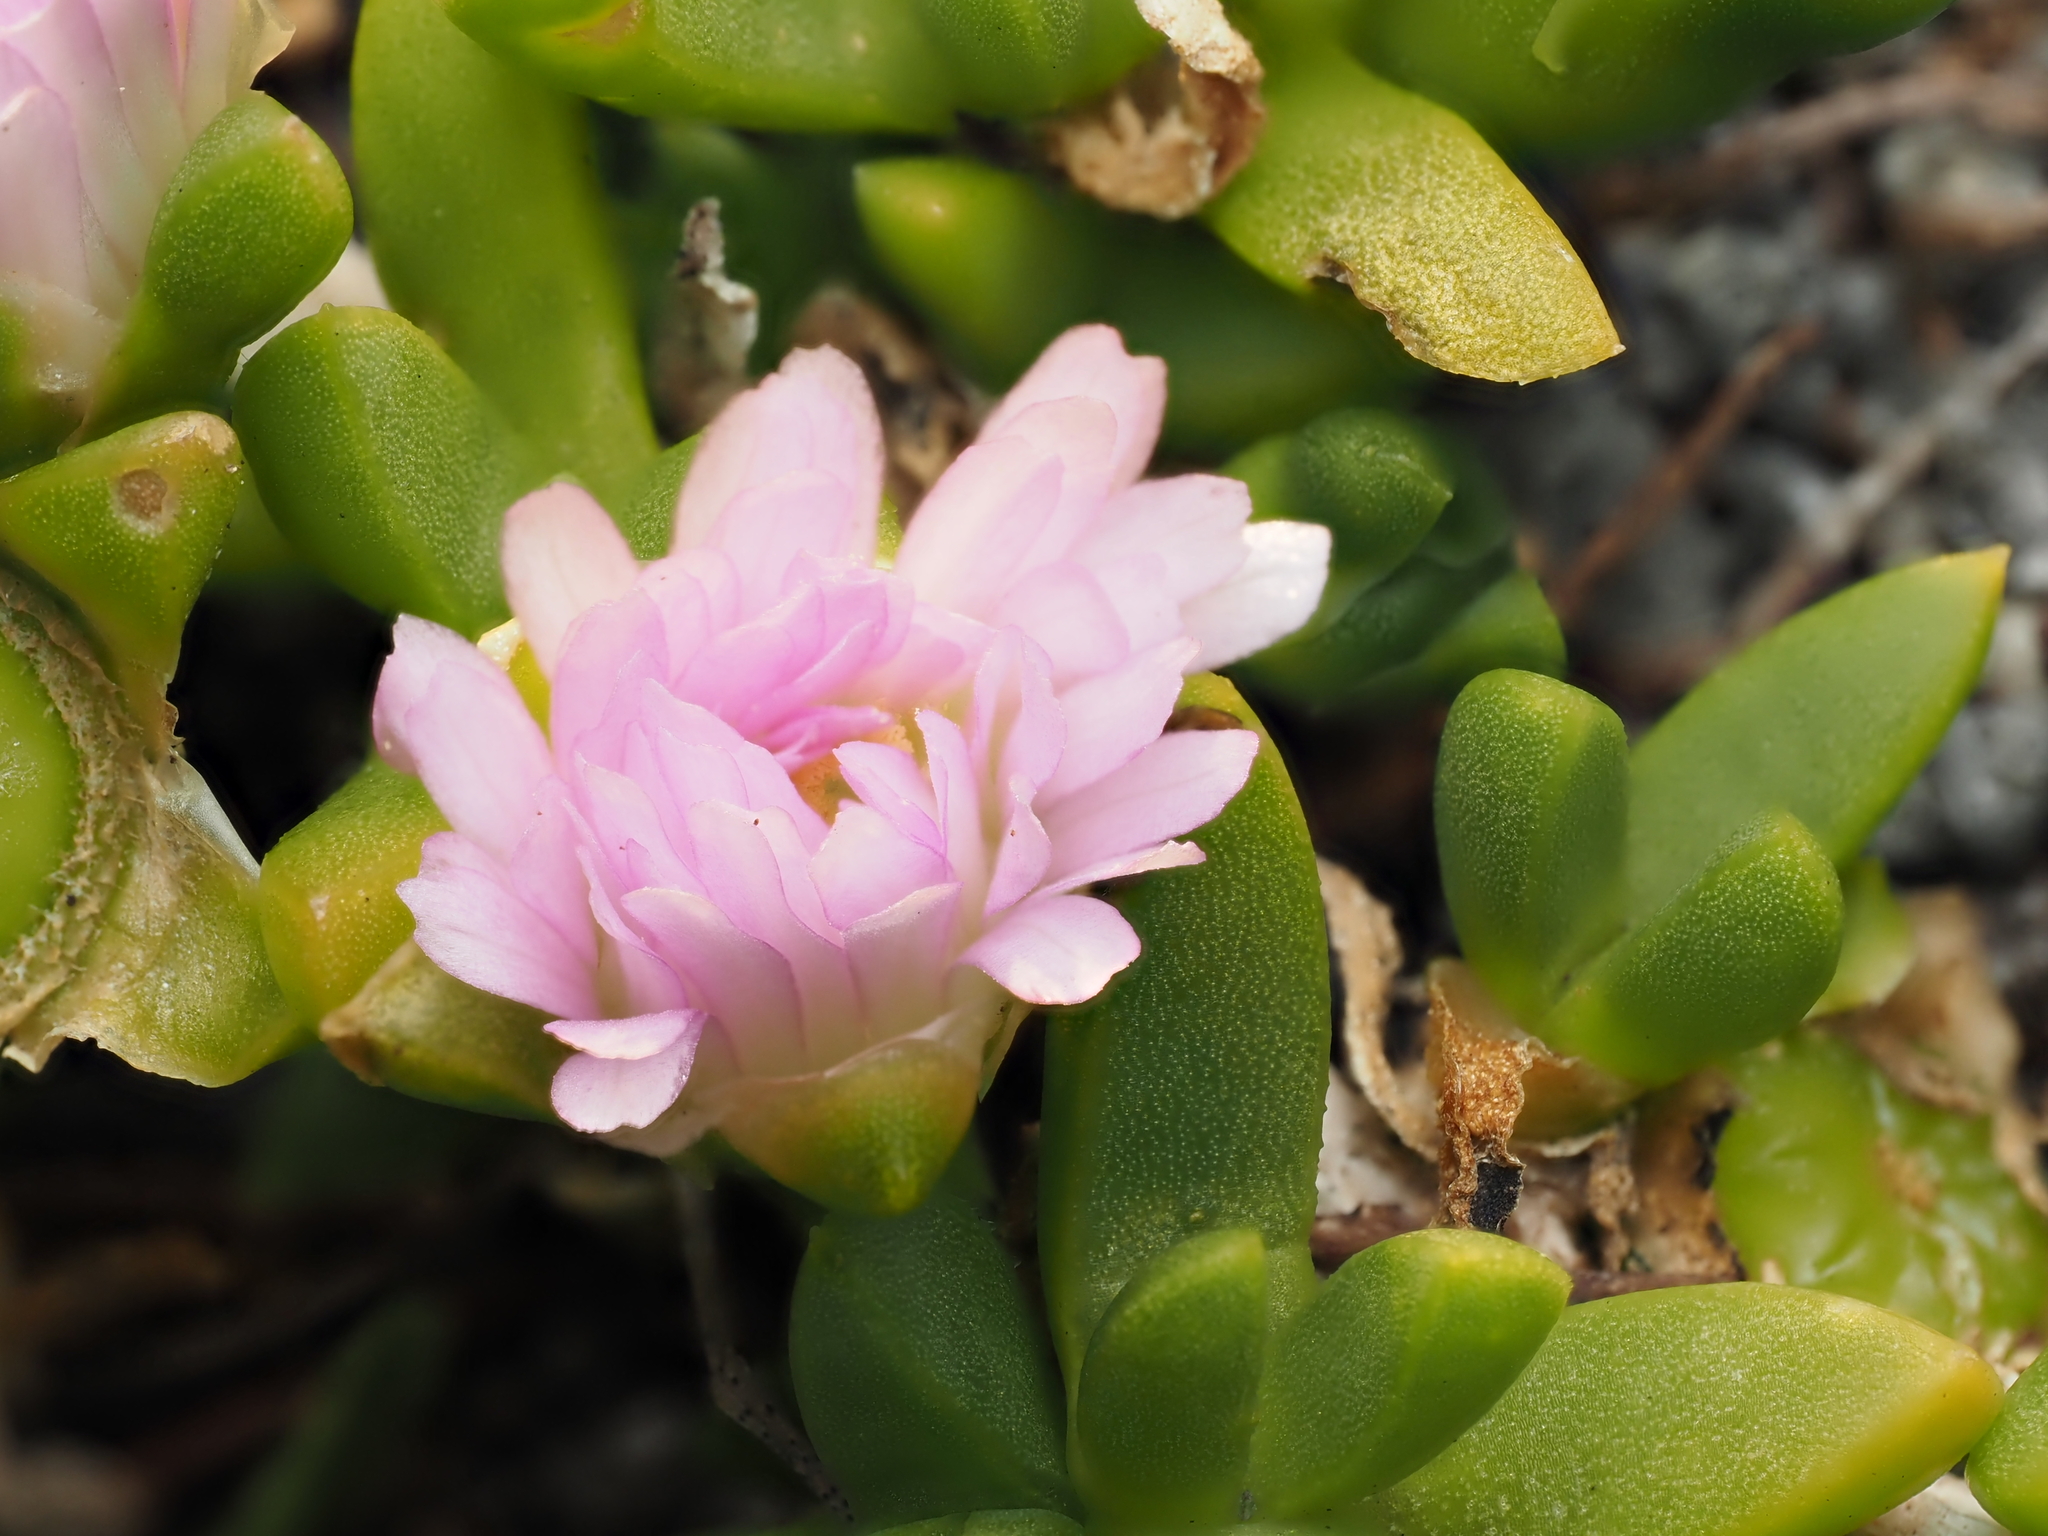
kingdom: Plantae
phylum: Tracheophyta
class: Magnoliopsida
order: Caryophyllales
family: Aizoaceae
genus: Disphyma
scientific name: Disphyma australe
